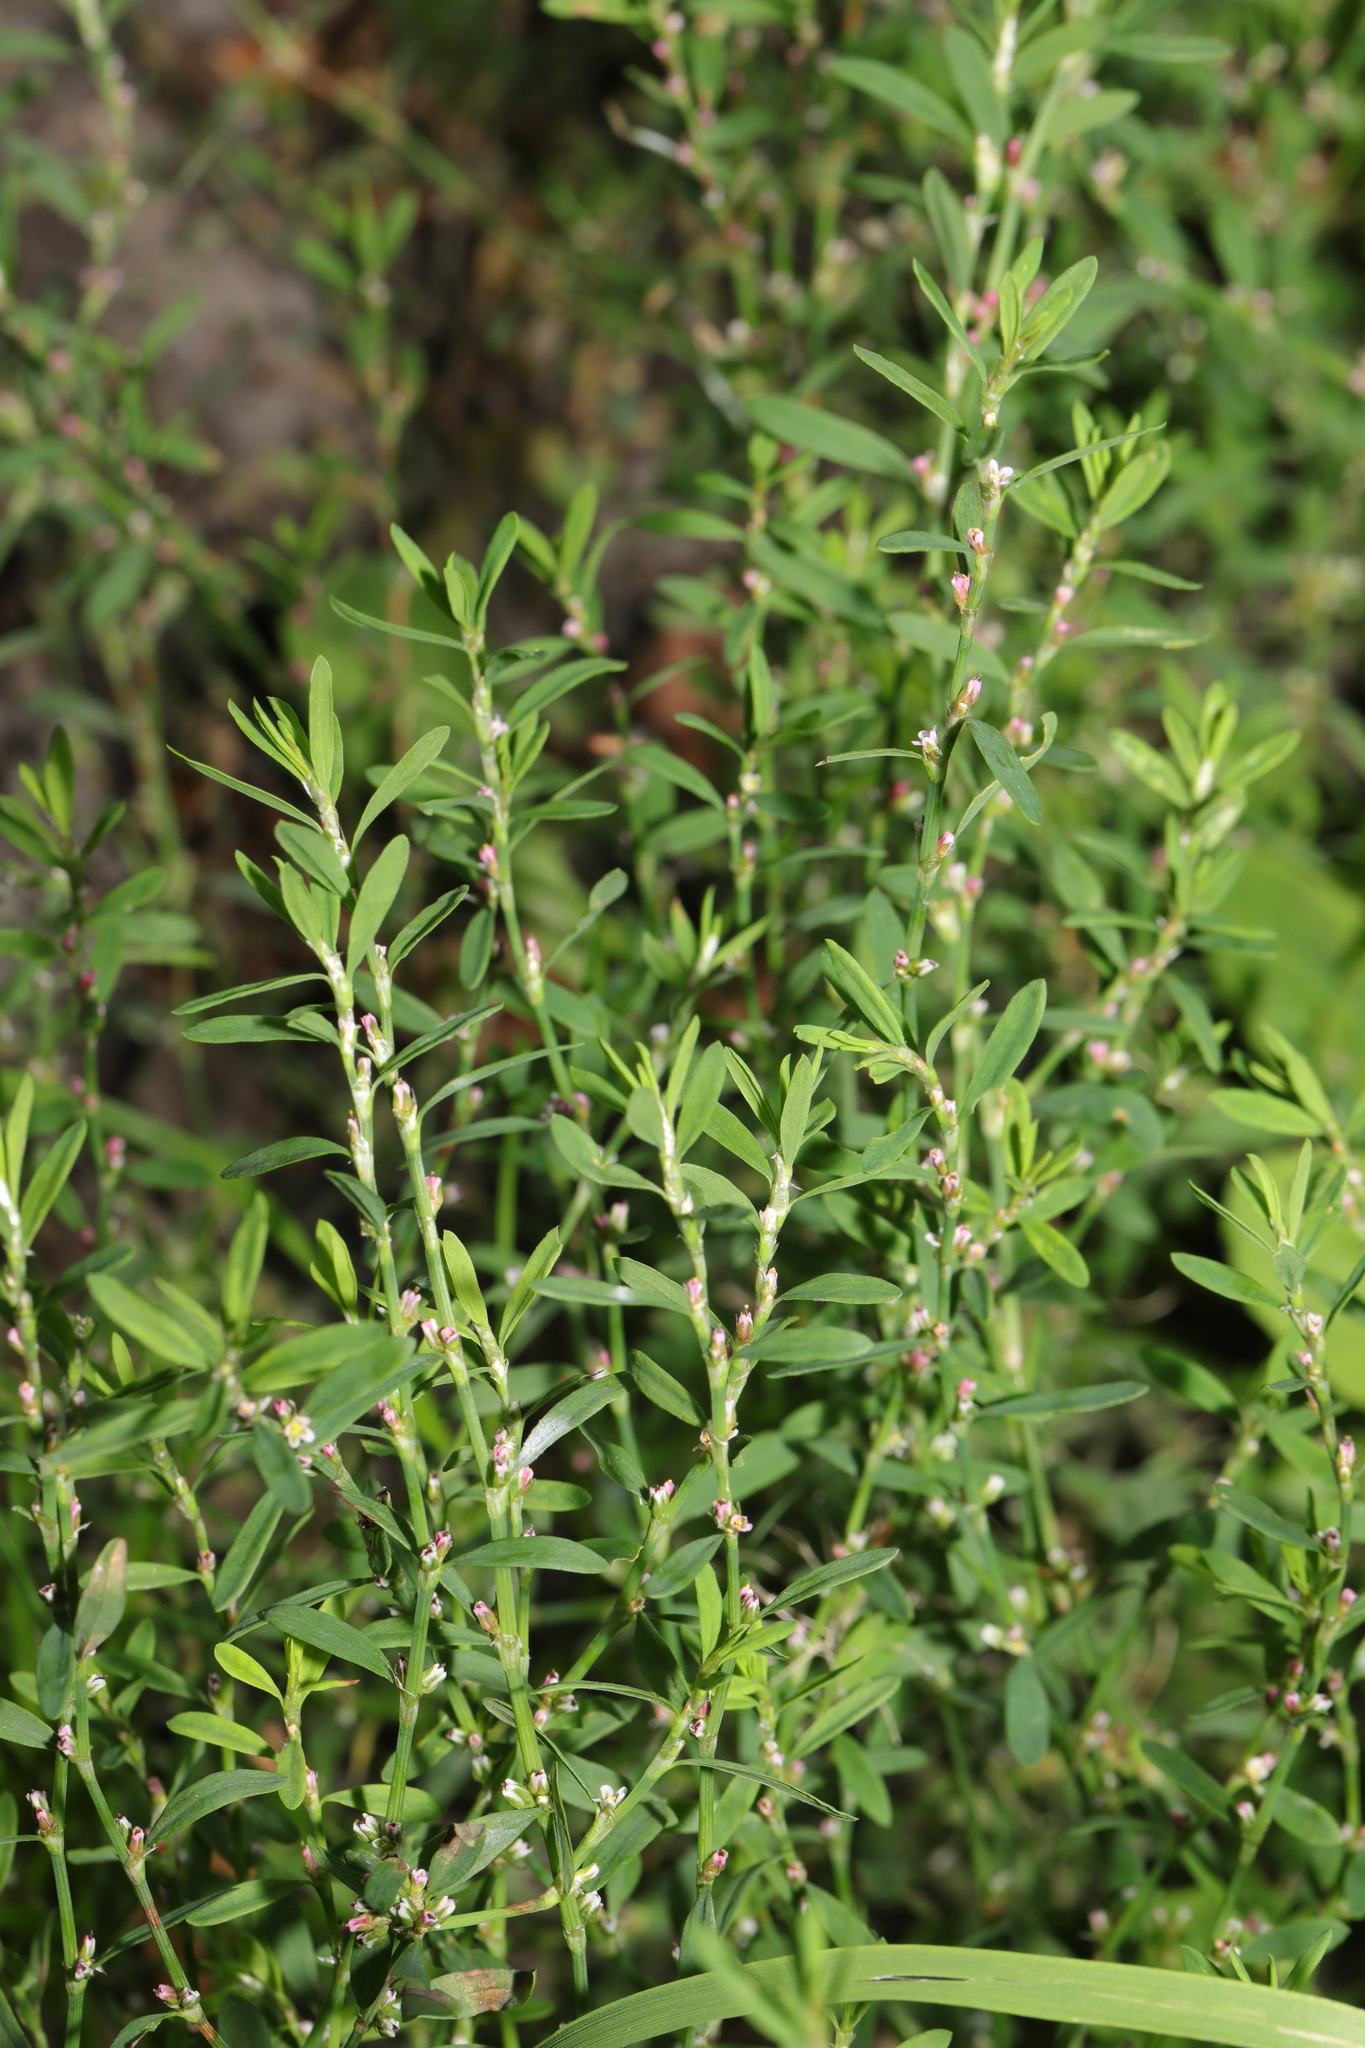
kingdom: Plantae
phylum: Tracheophyta
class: Magnoliopsida
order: Caryophyllales
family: Polygonaceae
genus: Polygonum
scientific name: Polygonum aviculare
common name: Prostrate knotweed
